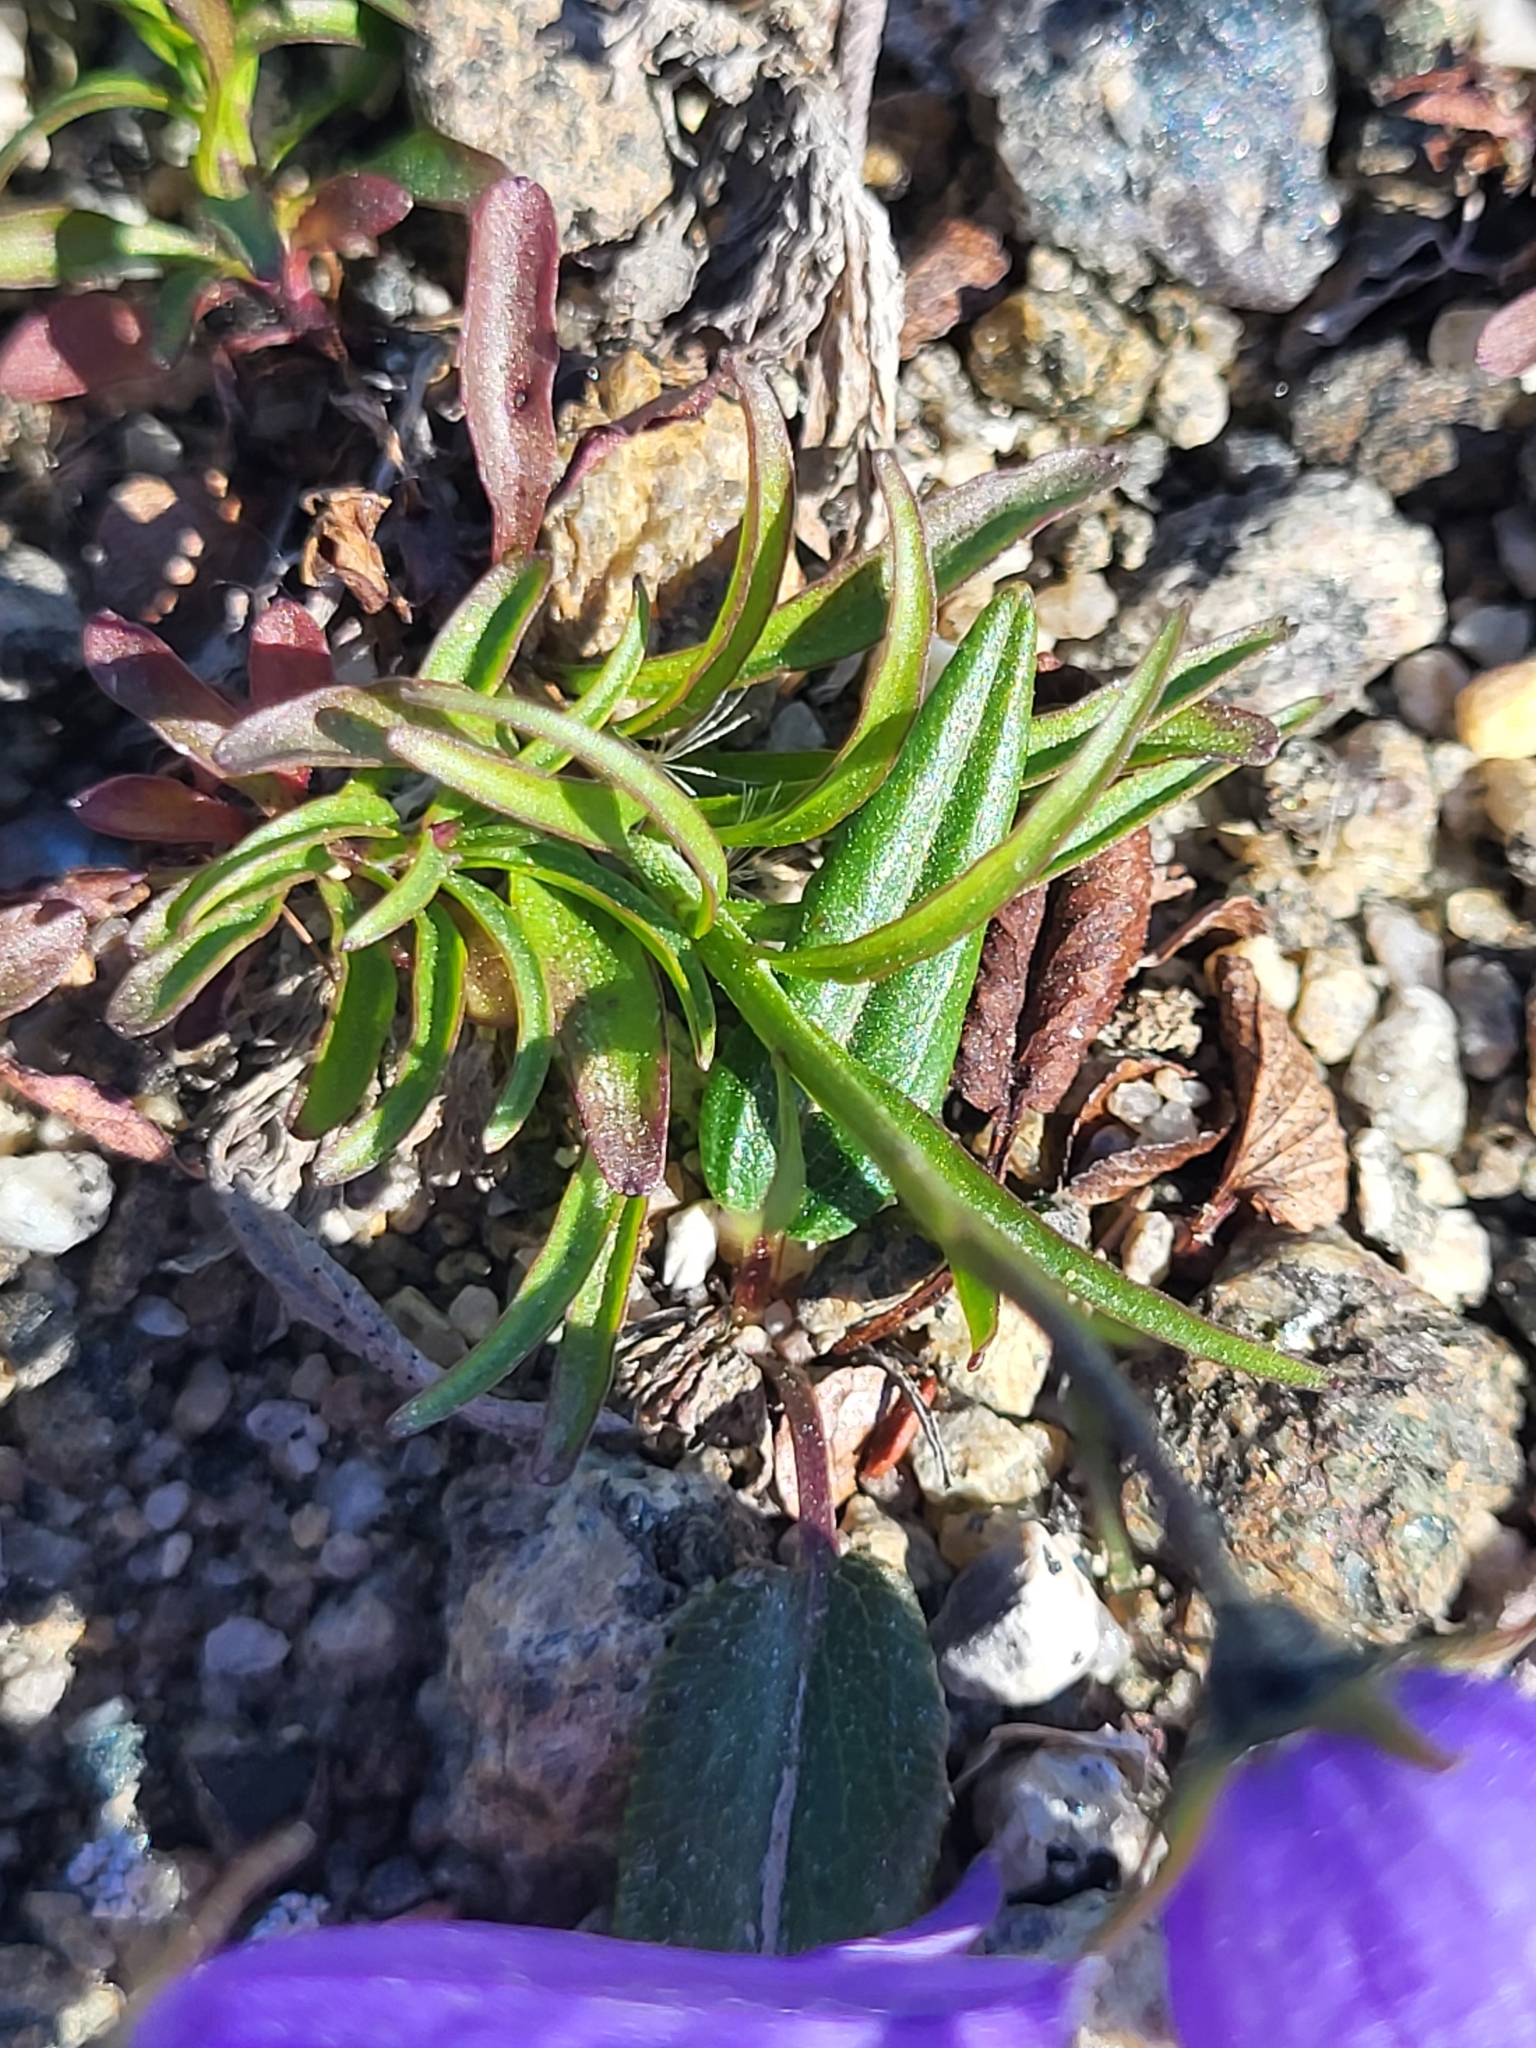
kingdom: Plantae
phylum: Tracheophyta
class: Magnoliopsida
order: Asterales
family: Campanulaceae
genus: Campanula
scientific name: Campanula giesekiana
